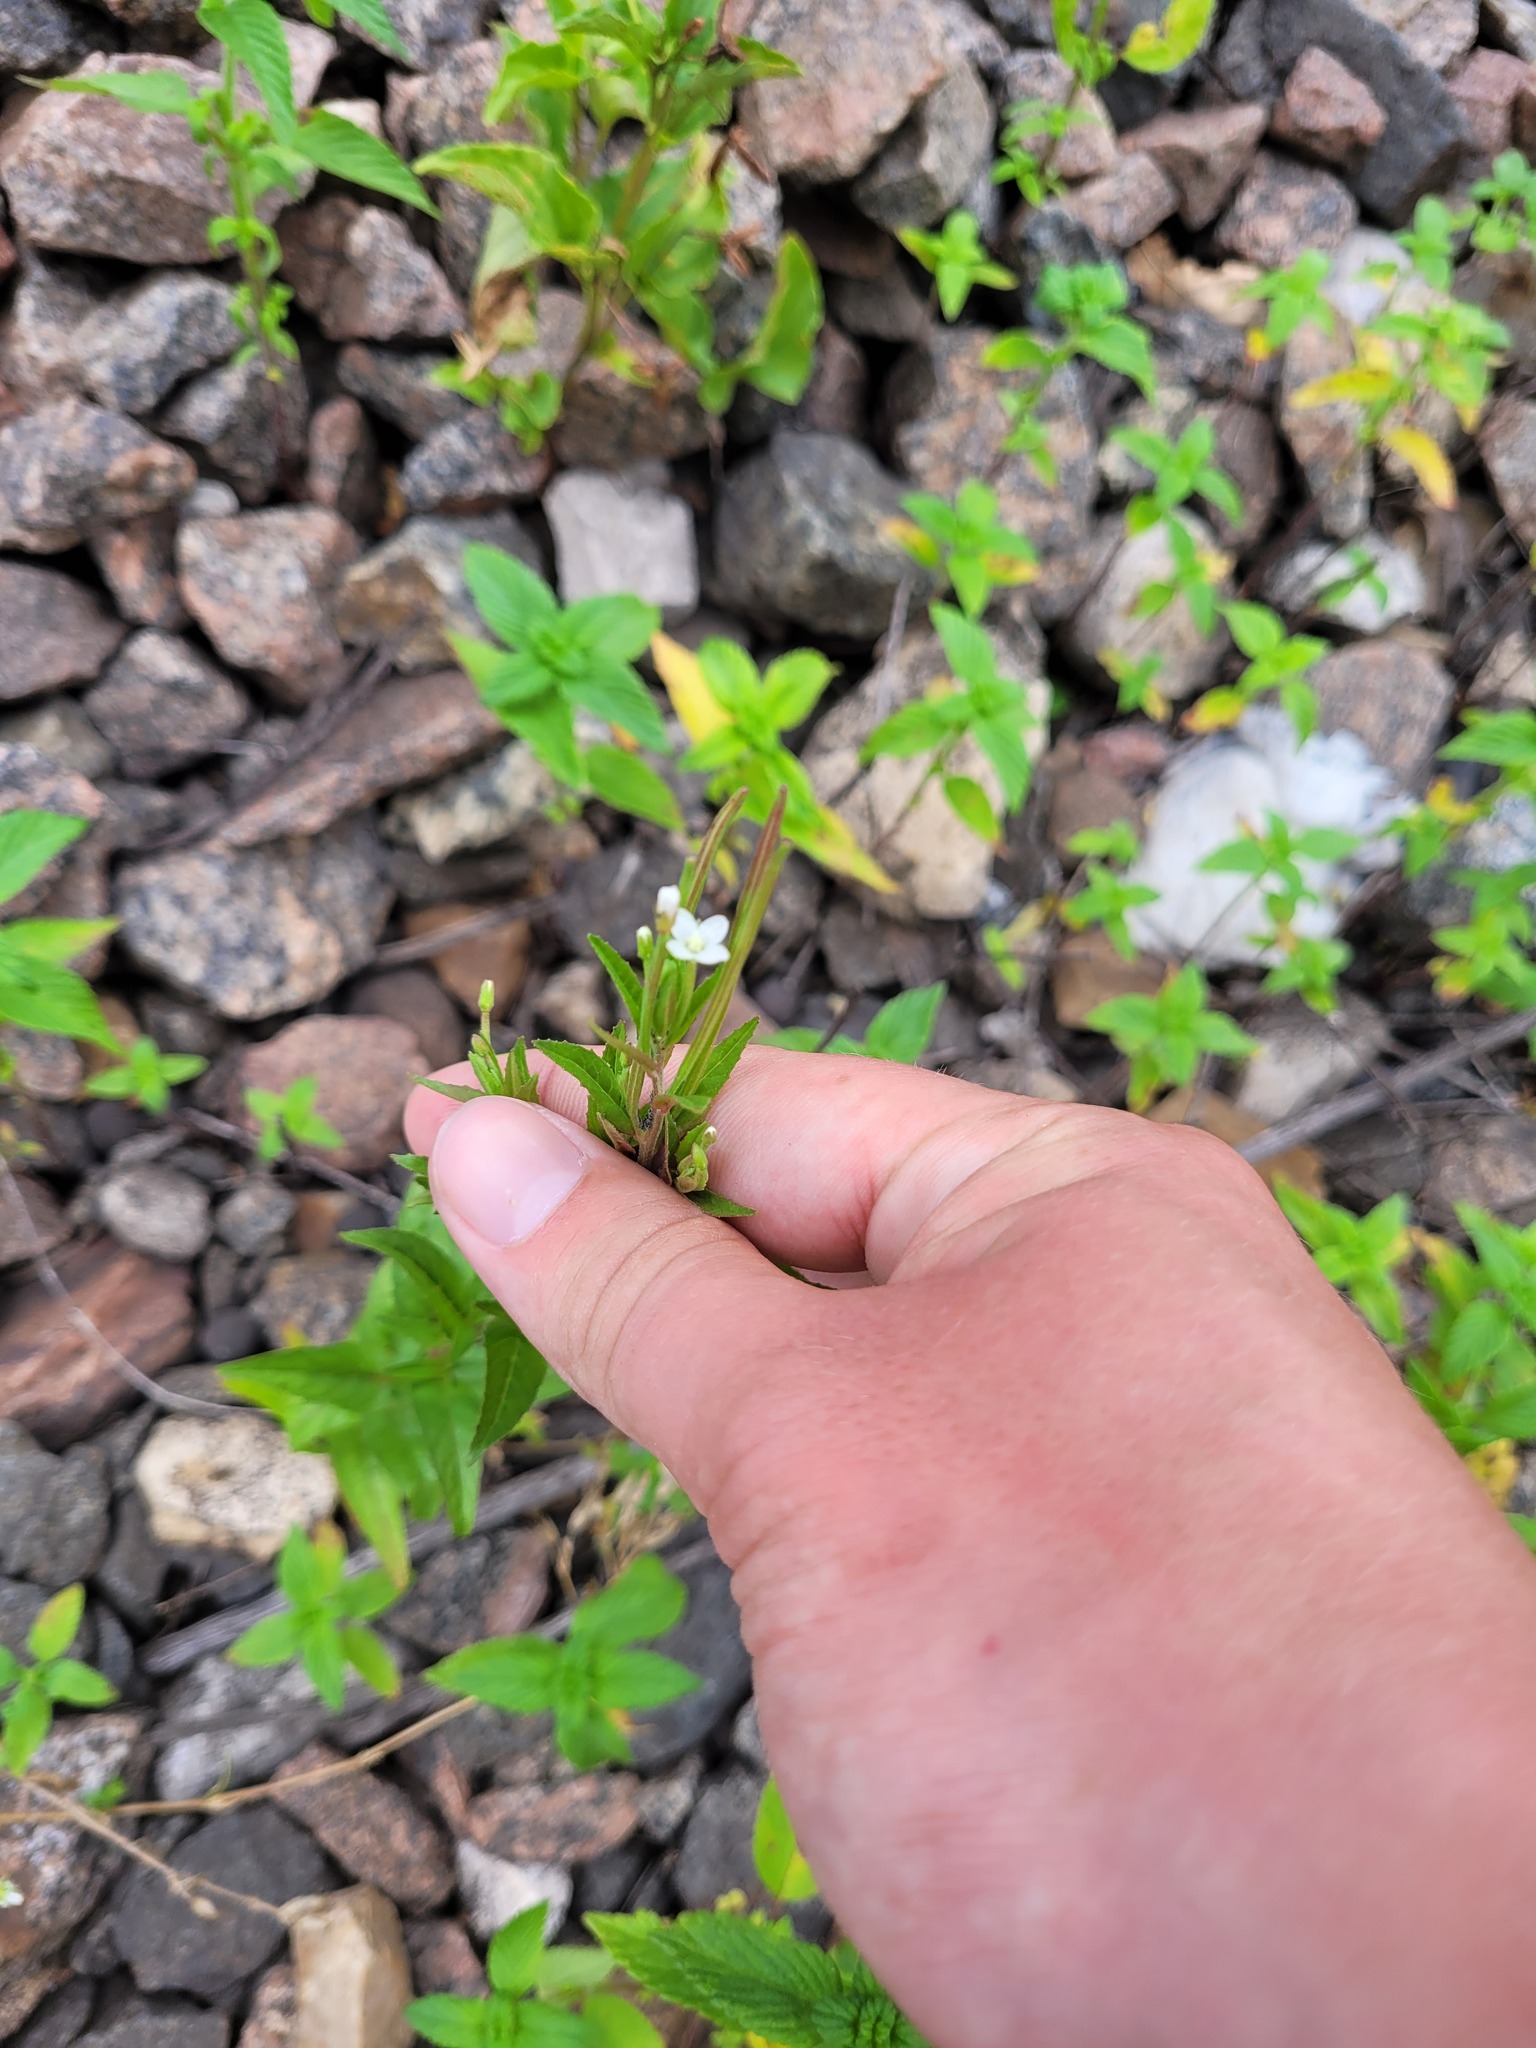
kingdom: Plantae
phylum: Tracheophyta
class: Magnoliopsida
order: Myrtales
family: Onagraceae
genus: Epilobium
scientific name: Epilobium pseudorubescens
